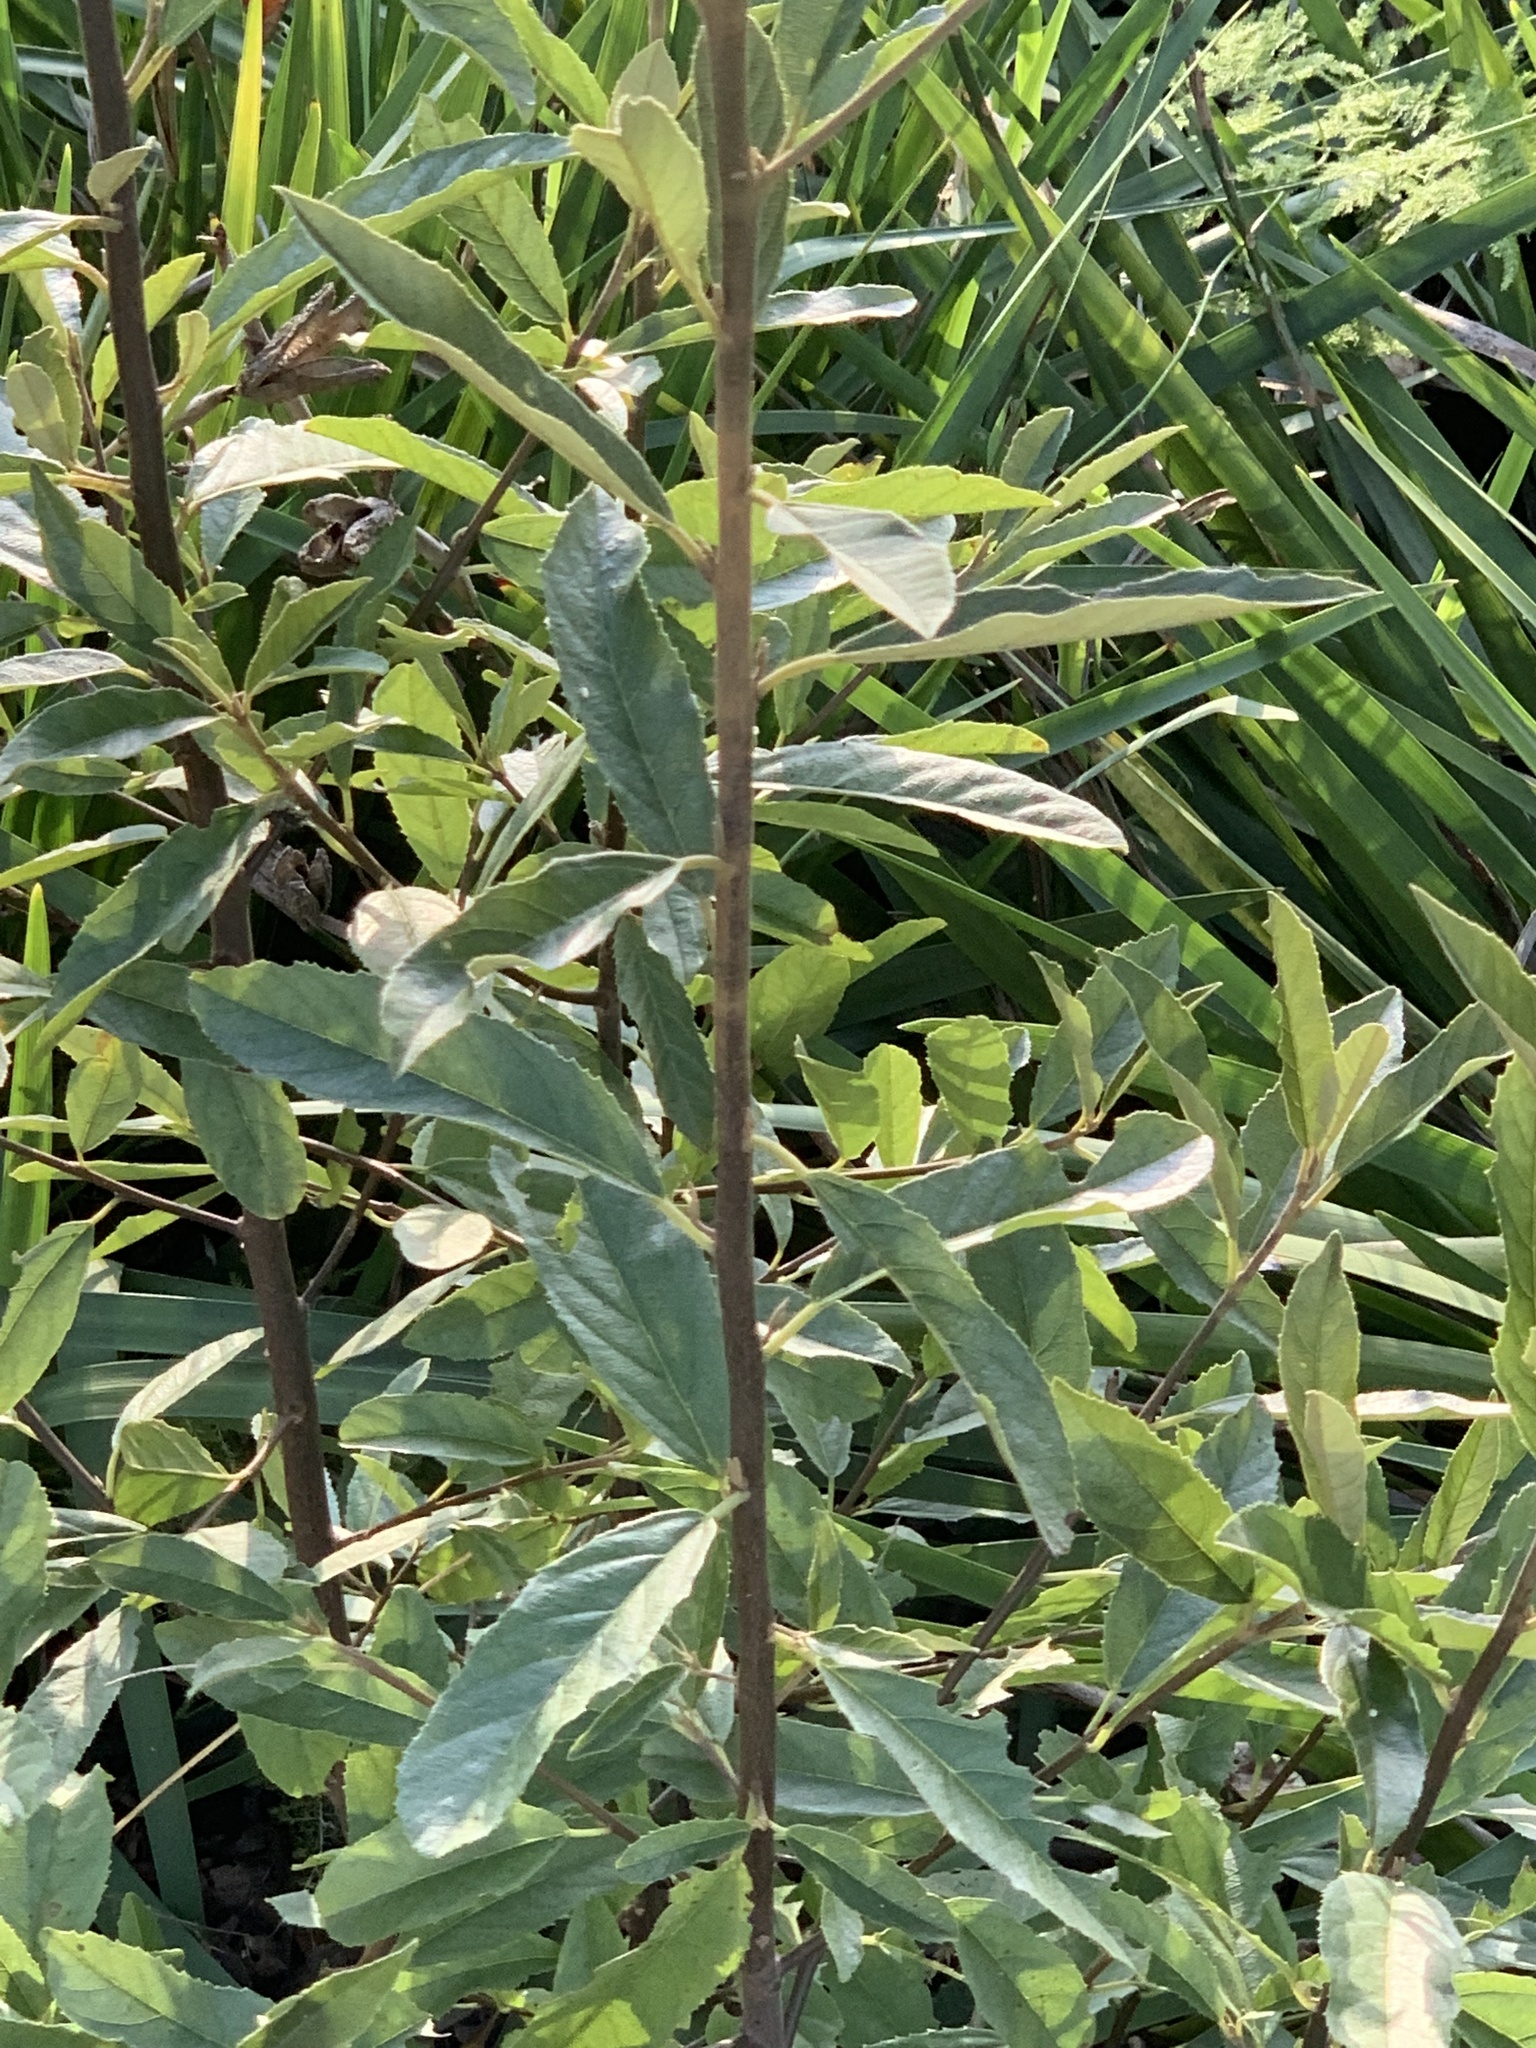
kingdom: Plantae
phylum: Tracheophyta
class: Magnoliopsida
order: Malpighiales
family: Achariaceae
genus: Kiggelaria
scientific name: Kiggelaria africana
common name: Wild peach
